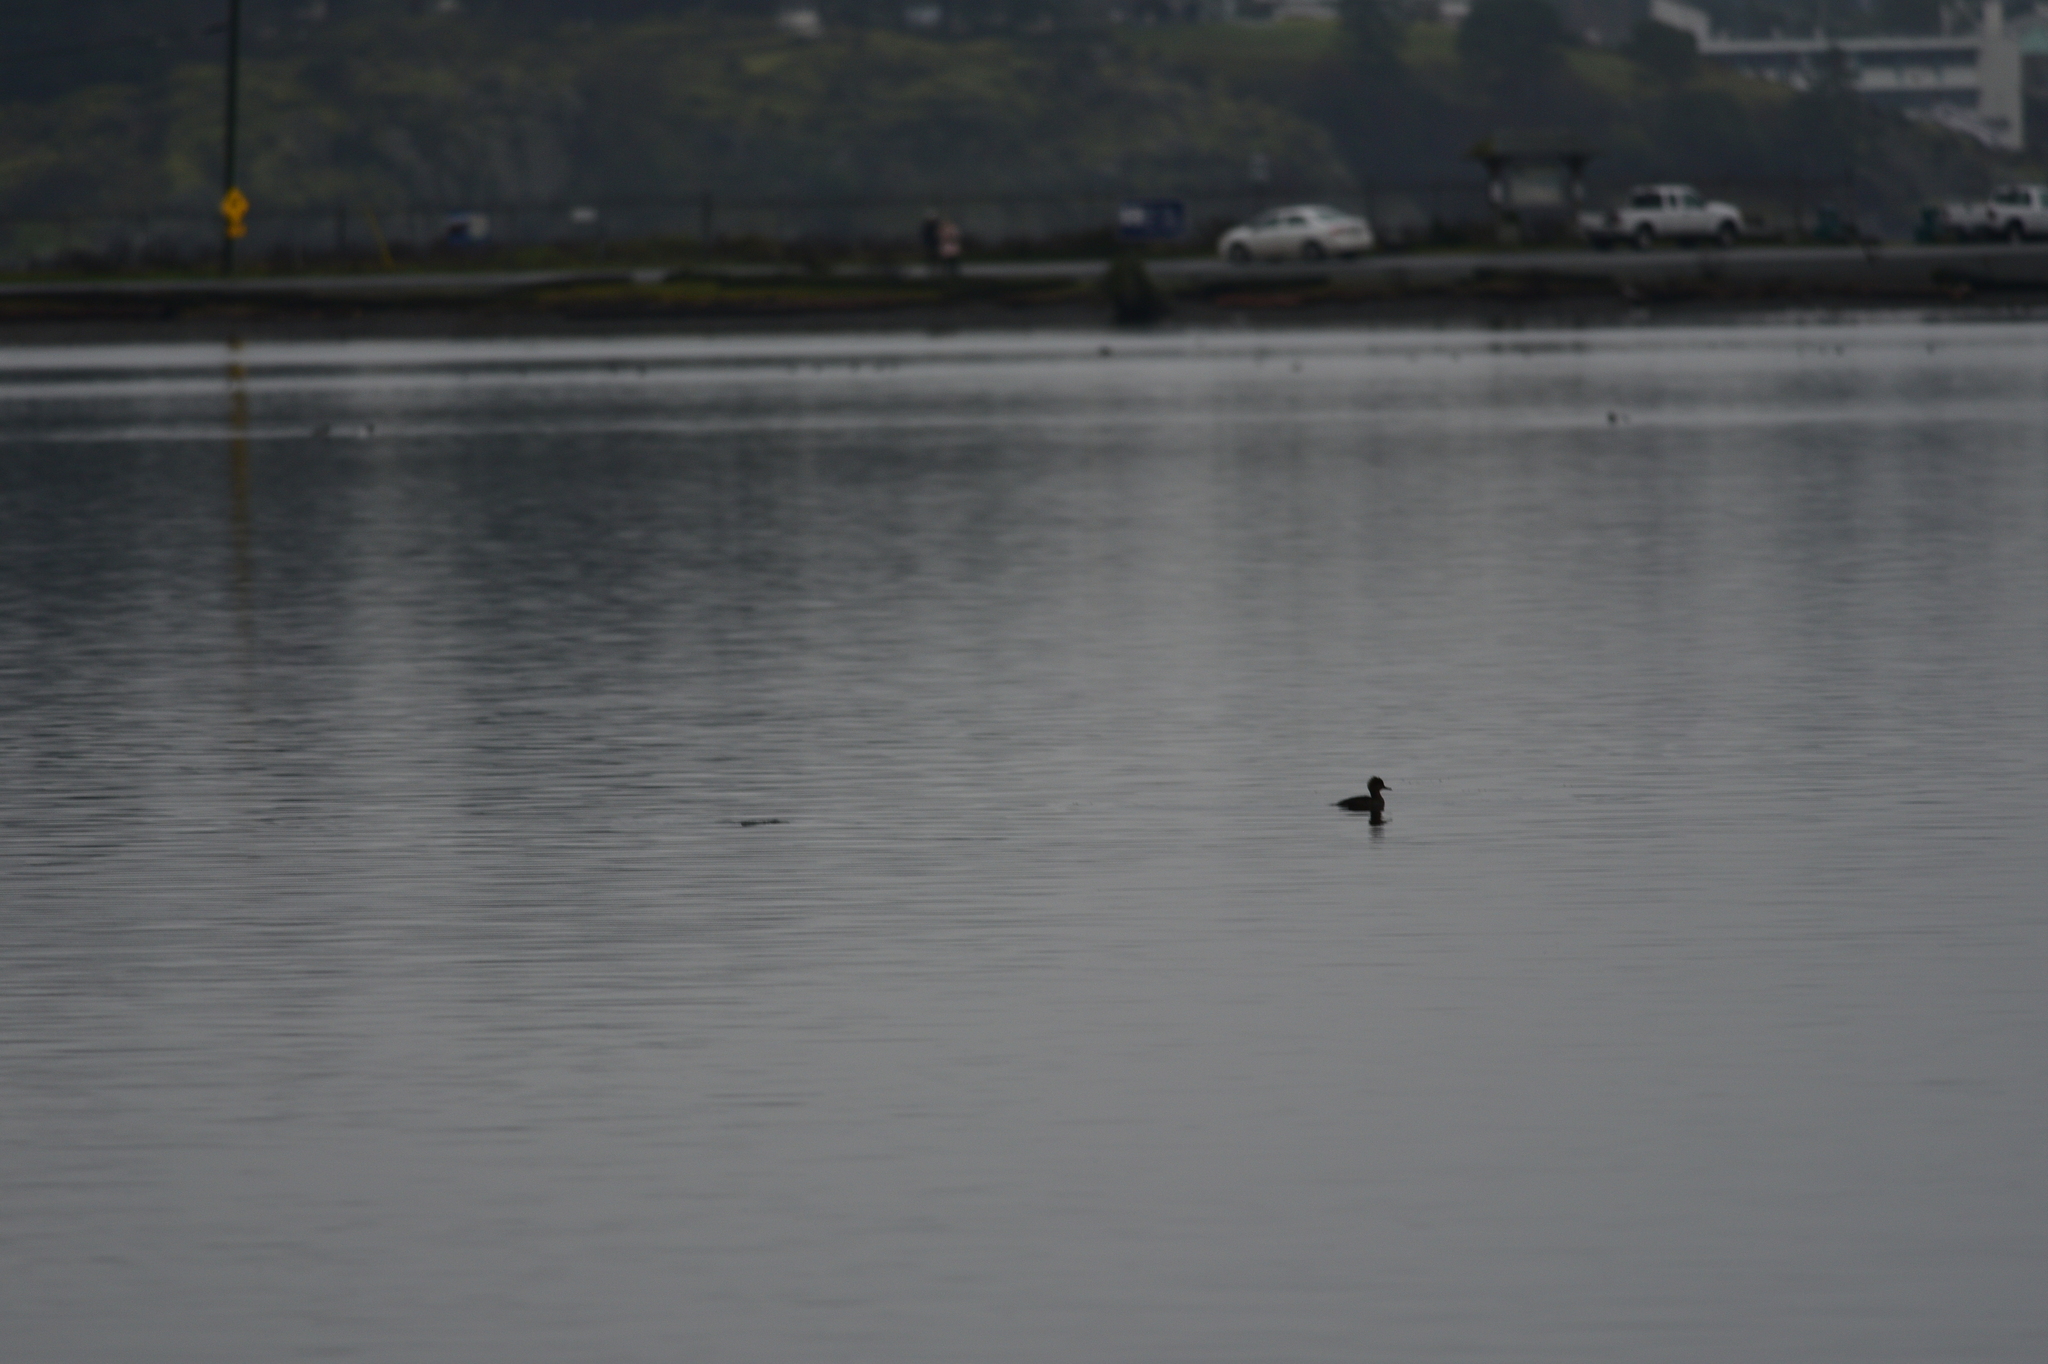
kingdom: Animalia
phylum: Chordata
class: Aves
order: Anseriformes
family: Anatidae
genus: Lophodytes
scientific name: Lophodytes cucullatus
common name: Hooded merganser
